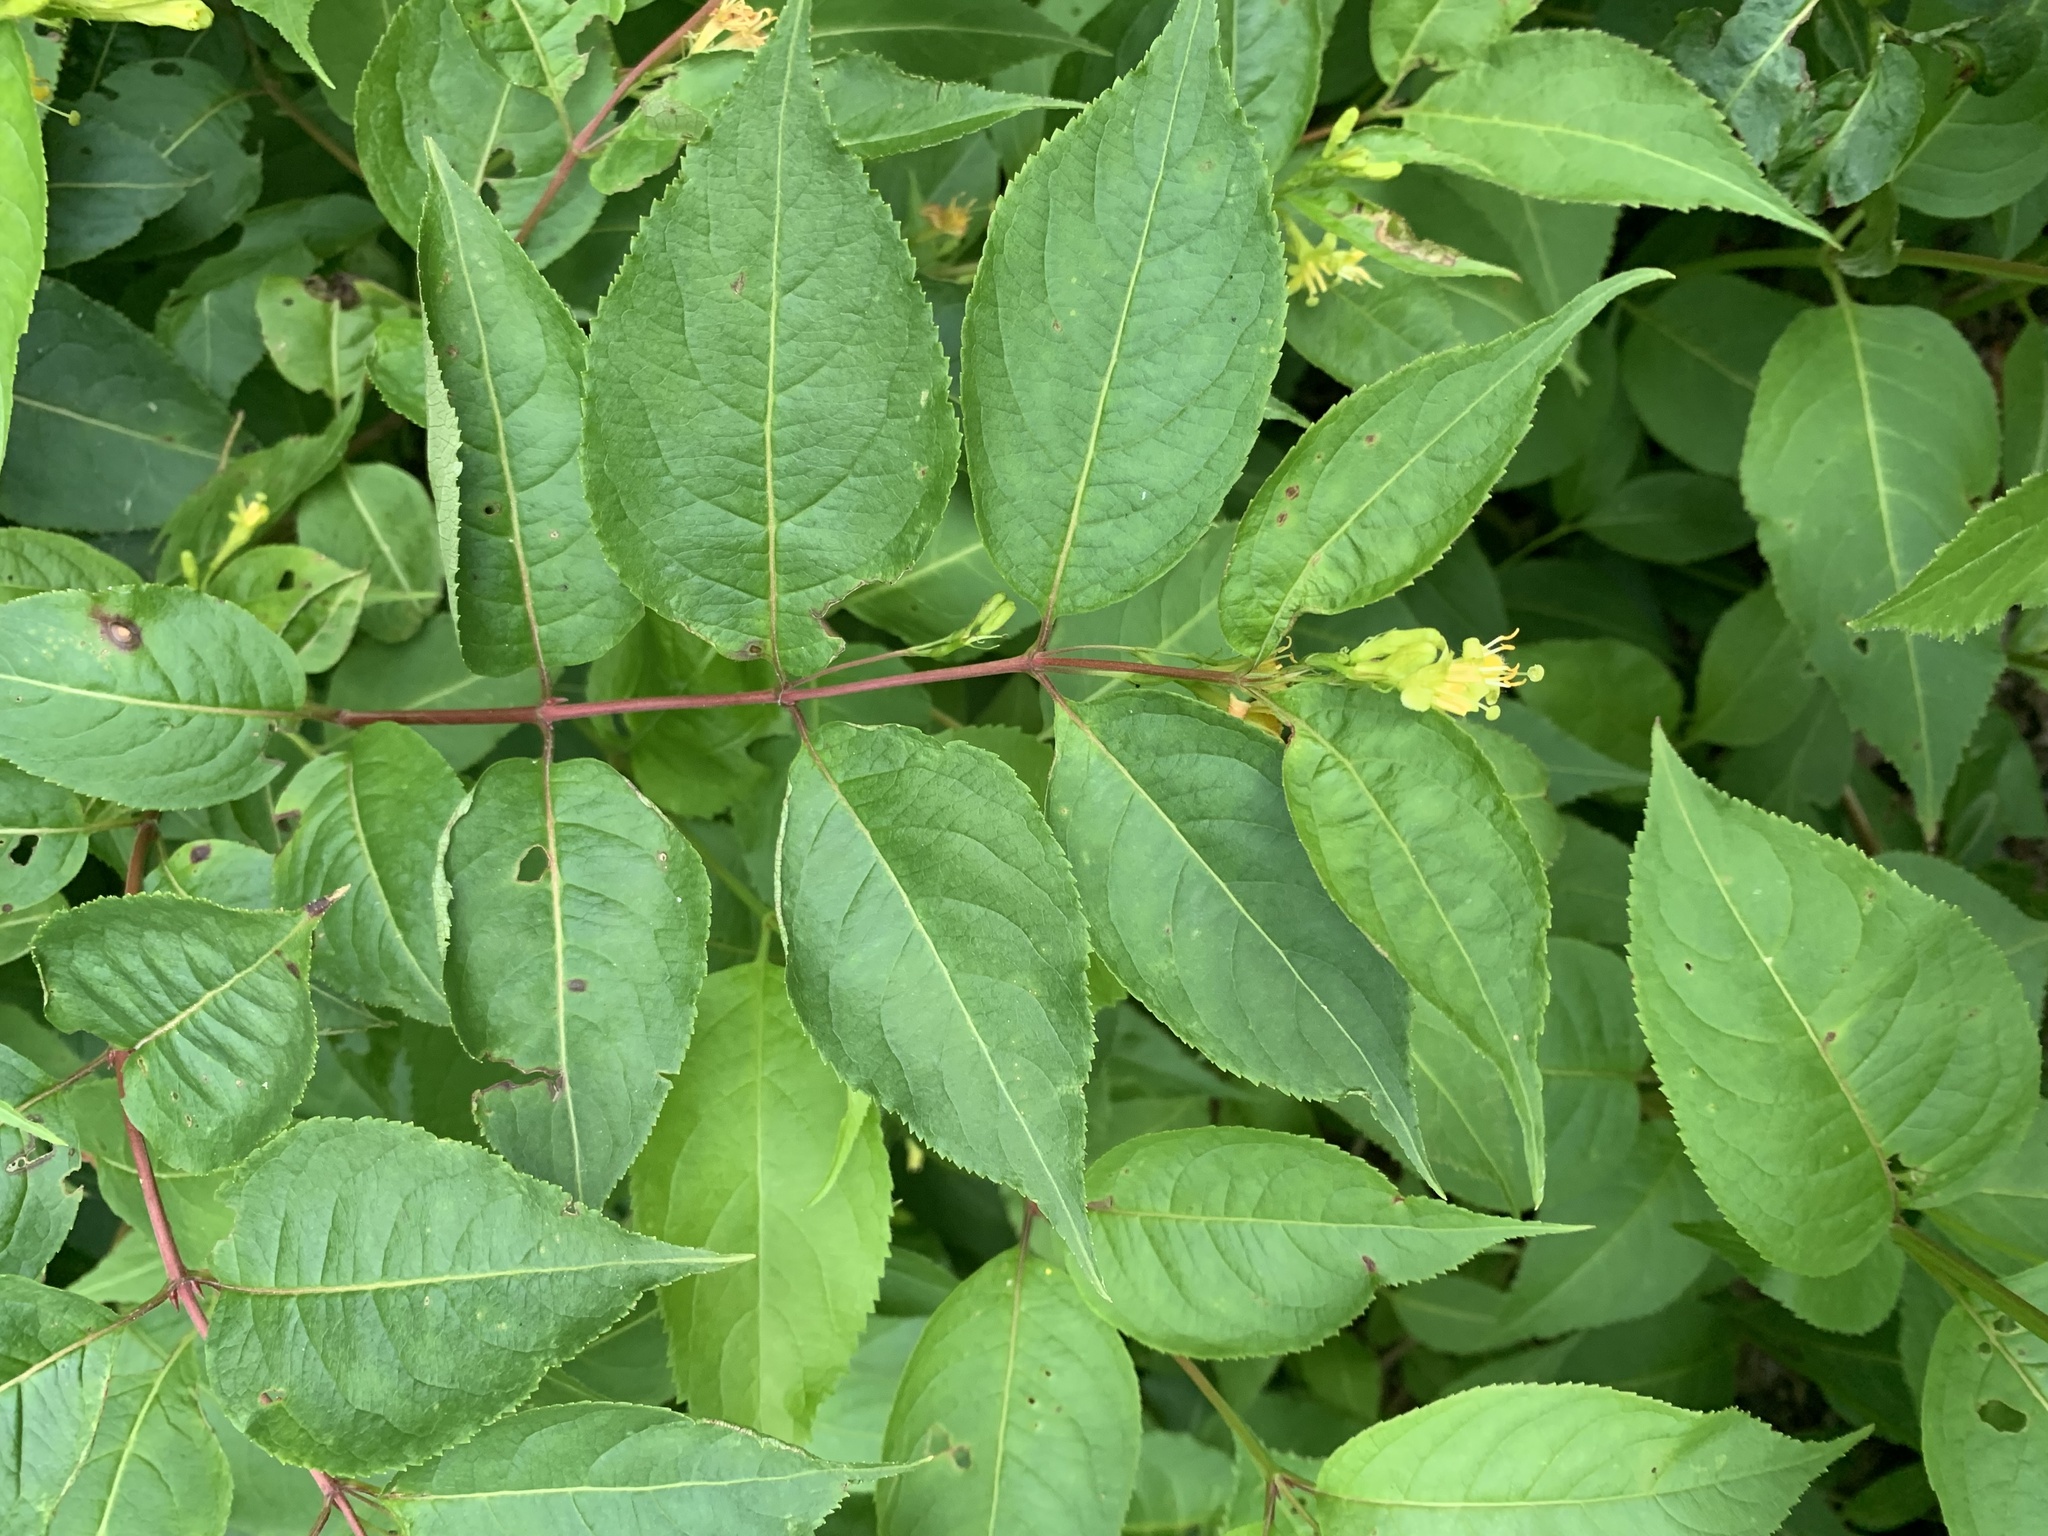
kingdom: Plantae
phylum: Tracheophyta
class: Magnoliopsida
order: Dipsacales
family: Caprifoliaceae
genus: Diervilla
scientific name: Diervilla lonicera
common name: Bush-honeysuckle
